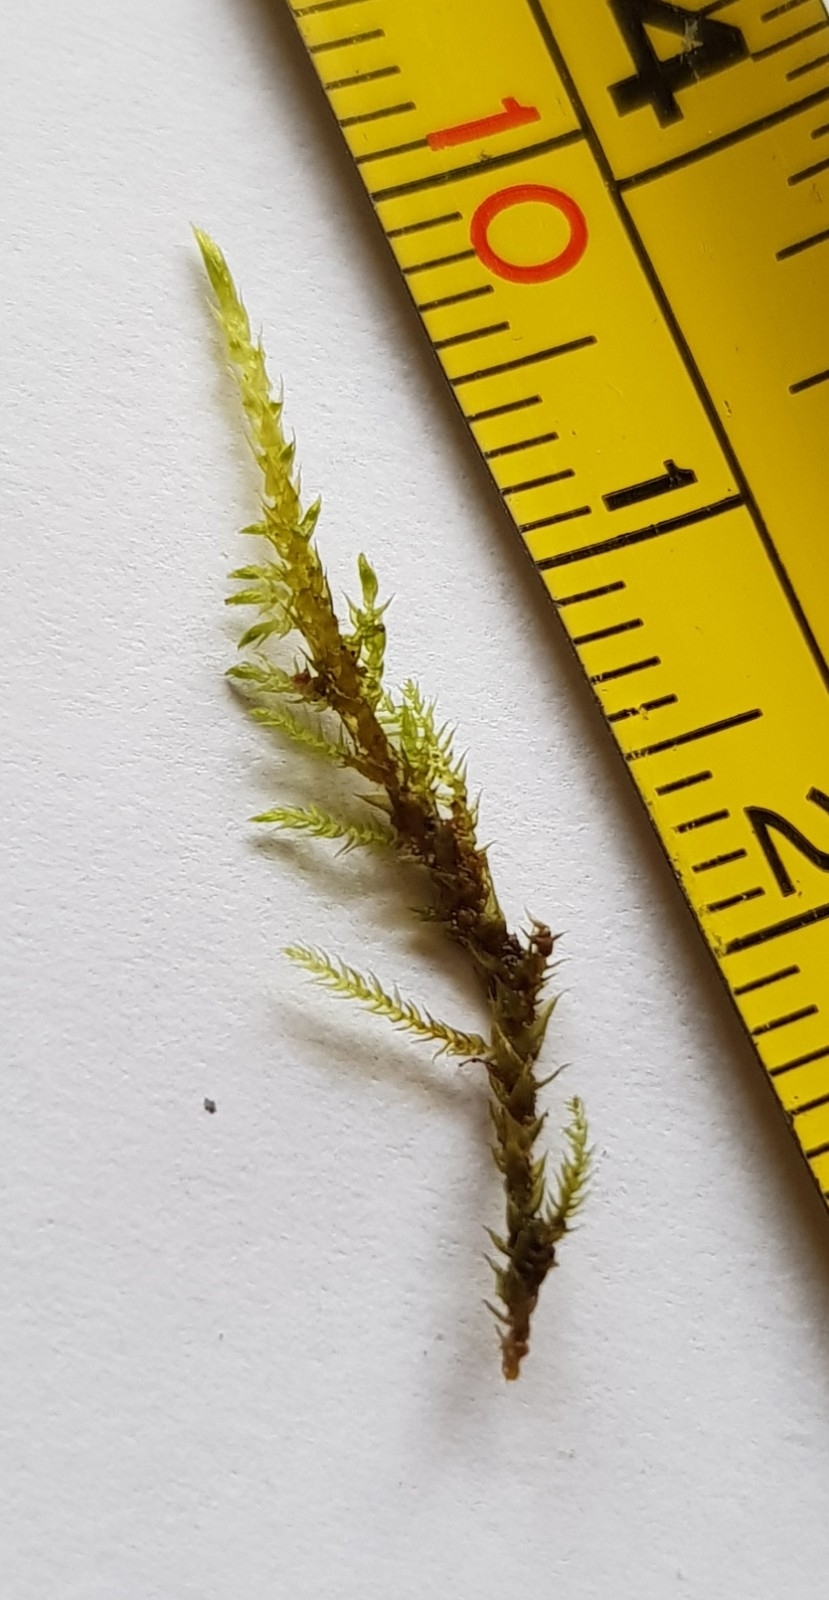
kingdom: Plantae
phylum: Bryophyta
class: Bryopsida
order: Hypnales
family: Amblystegiaceae
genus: Cratoneuron
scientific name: Cratoneuron filicinum
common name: Fern-leaved hook moss
